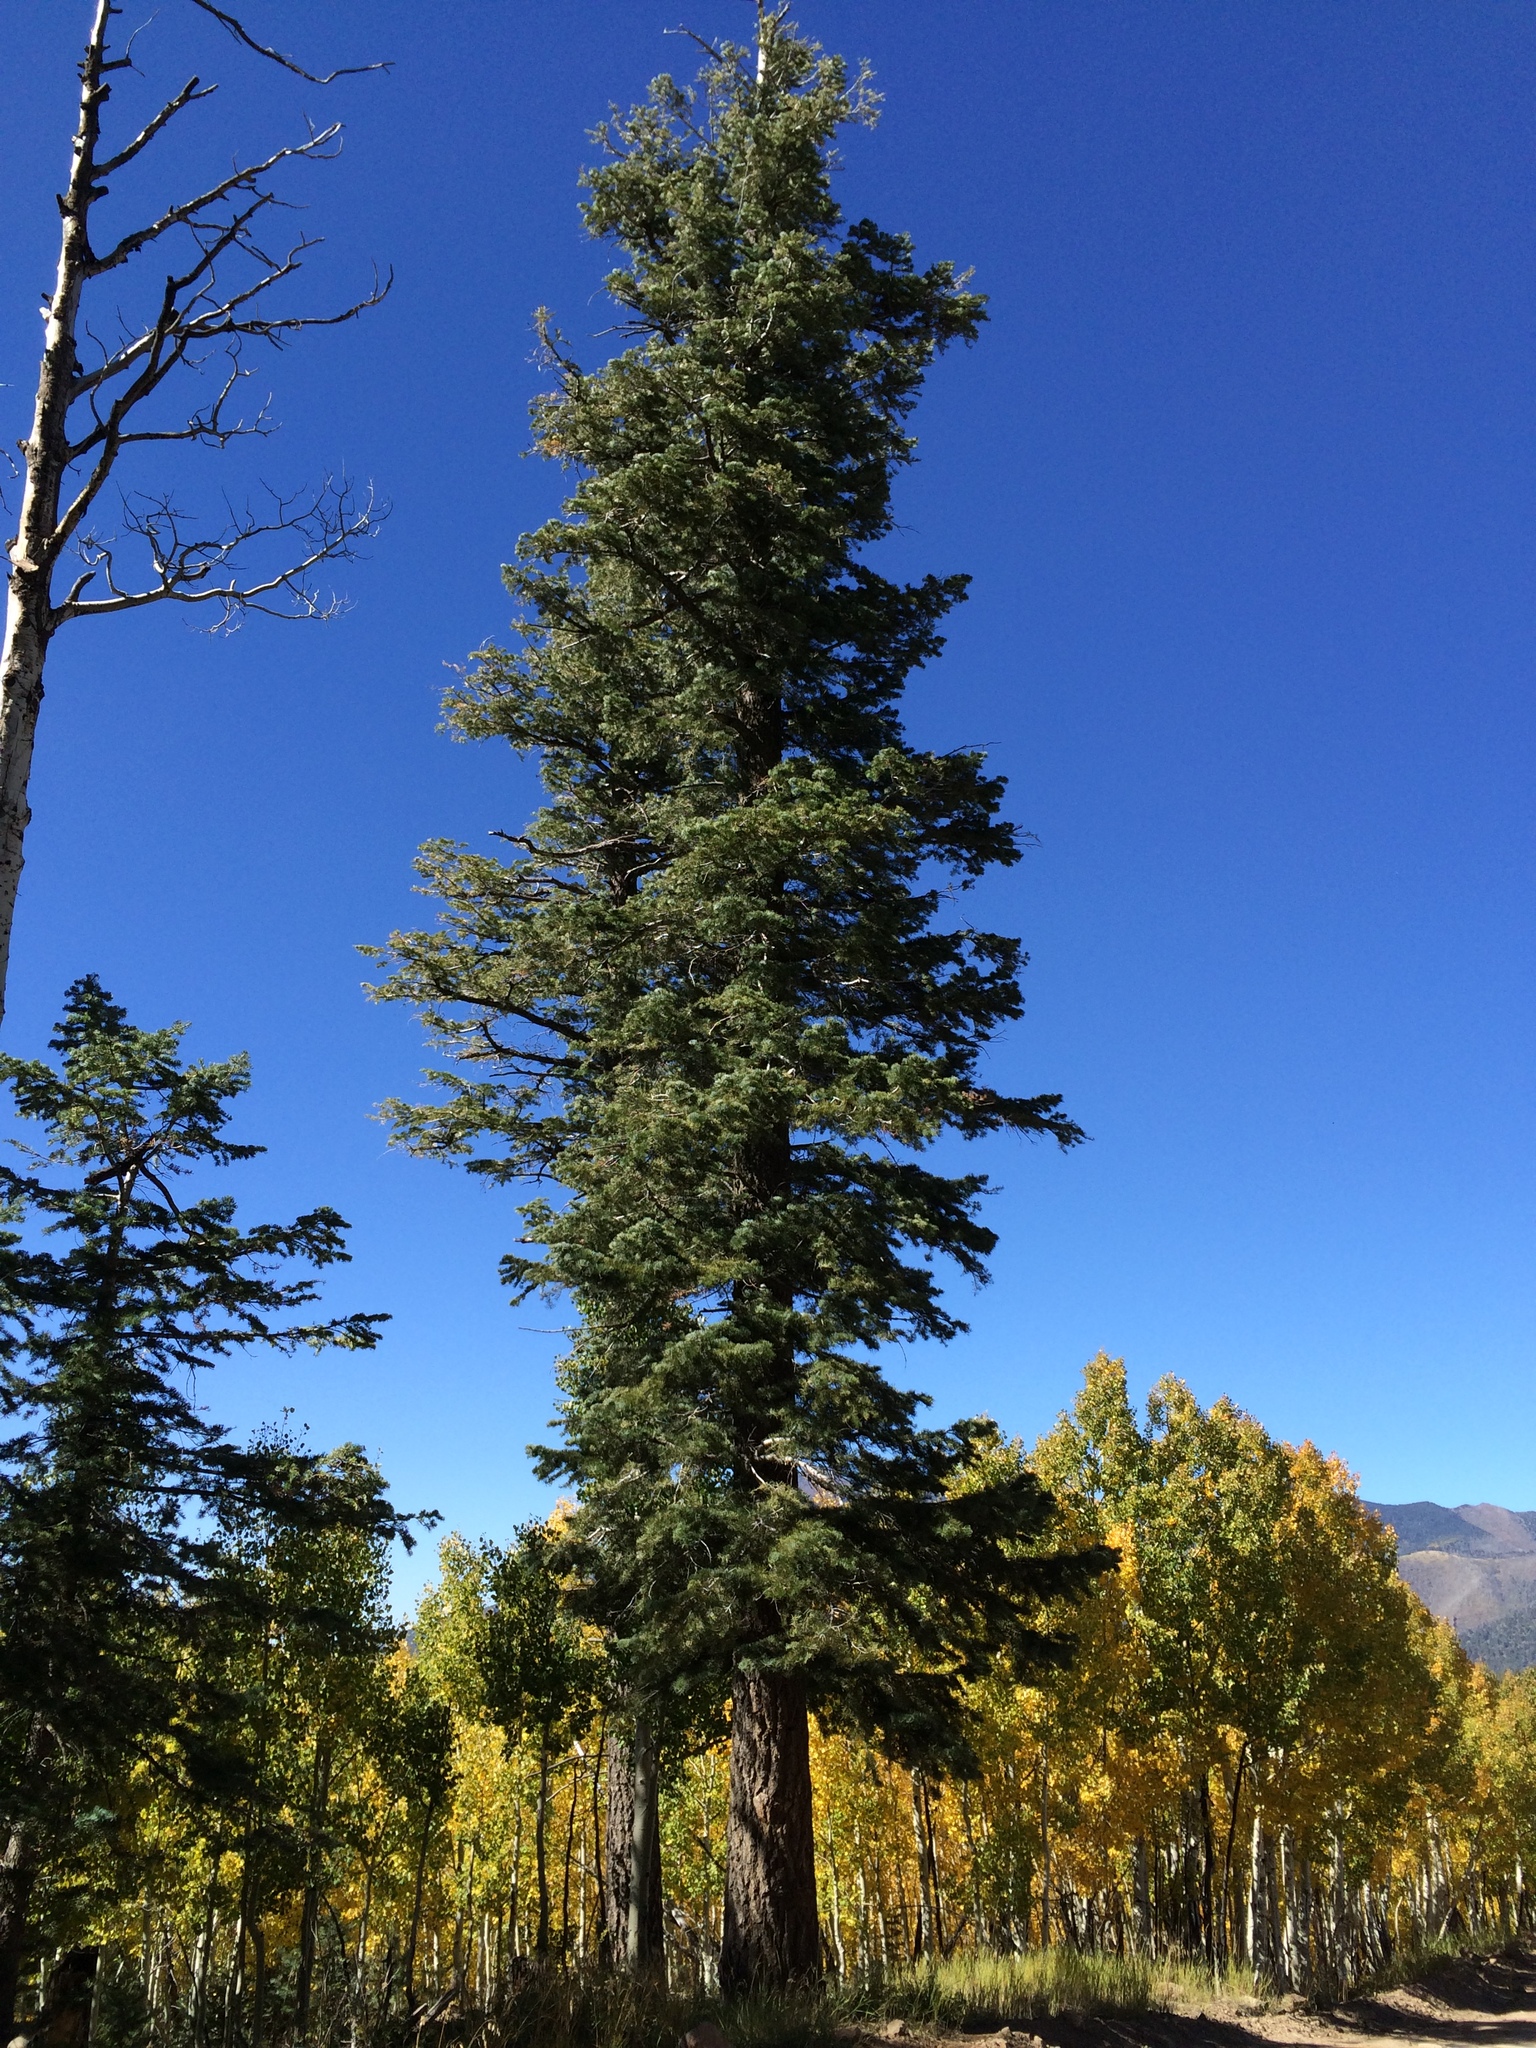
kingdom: Plantae
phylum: Tracheophyta
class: Pinopsida
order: Pinales
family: Pinaceae
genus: Pseudotsuga
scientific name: Pseudotsuga menziesii
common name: Douglas fir
